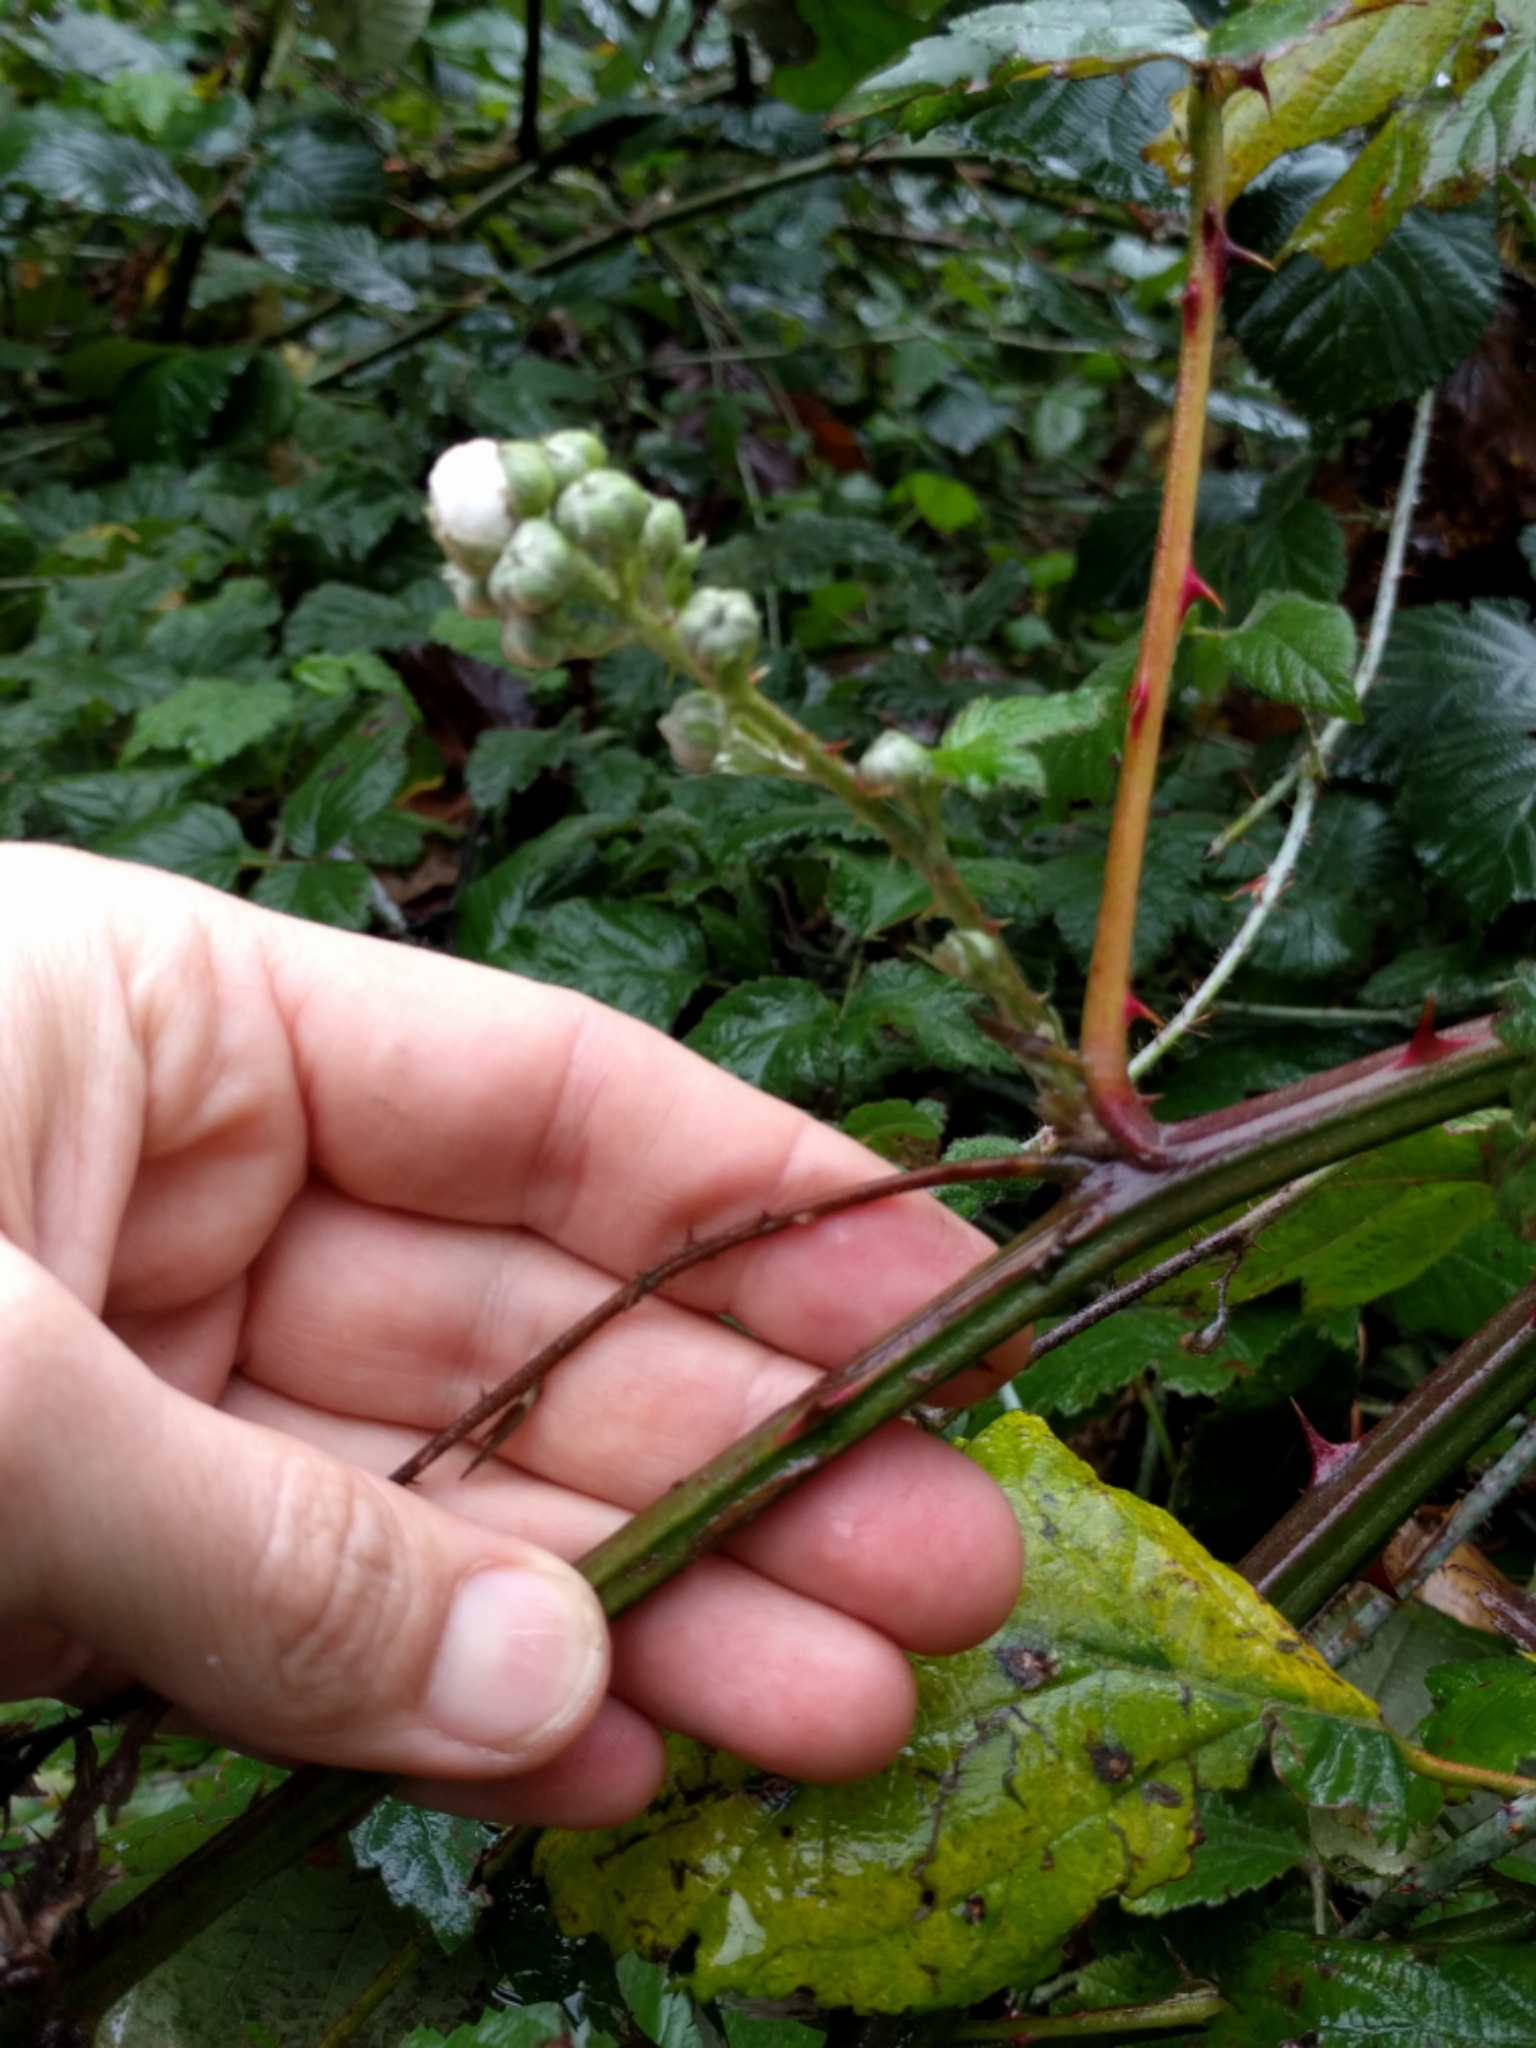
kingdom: Plantae
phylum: Tracheophyta
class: Magnoliopsida
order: Rosales
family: Rosaceae
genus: Rubus
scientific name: Rubus armeniacus
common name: Himalayan blackberry
